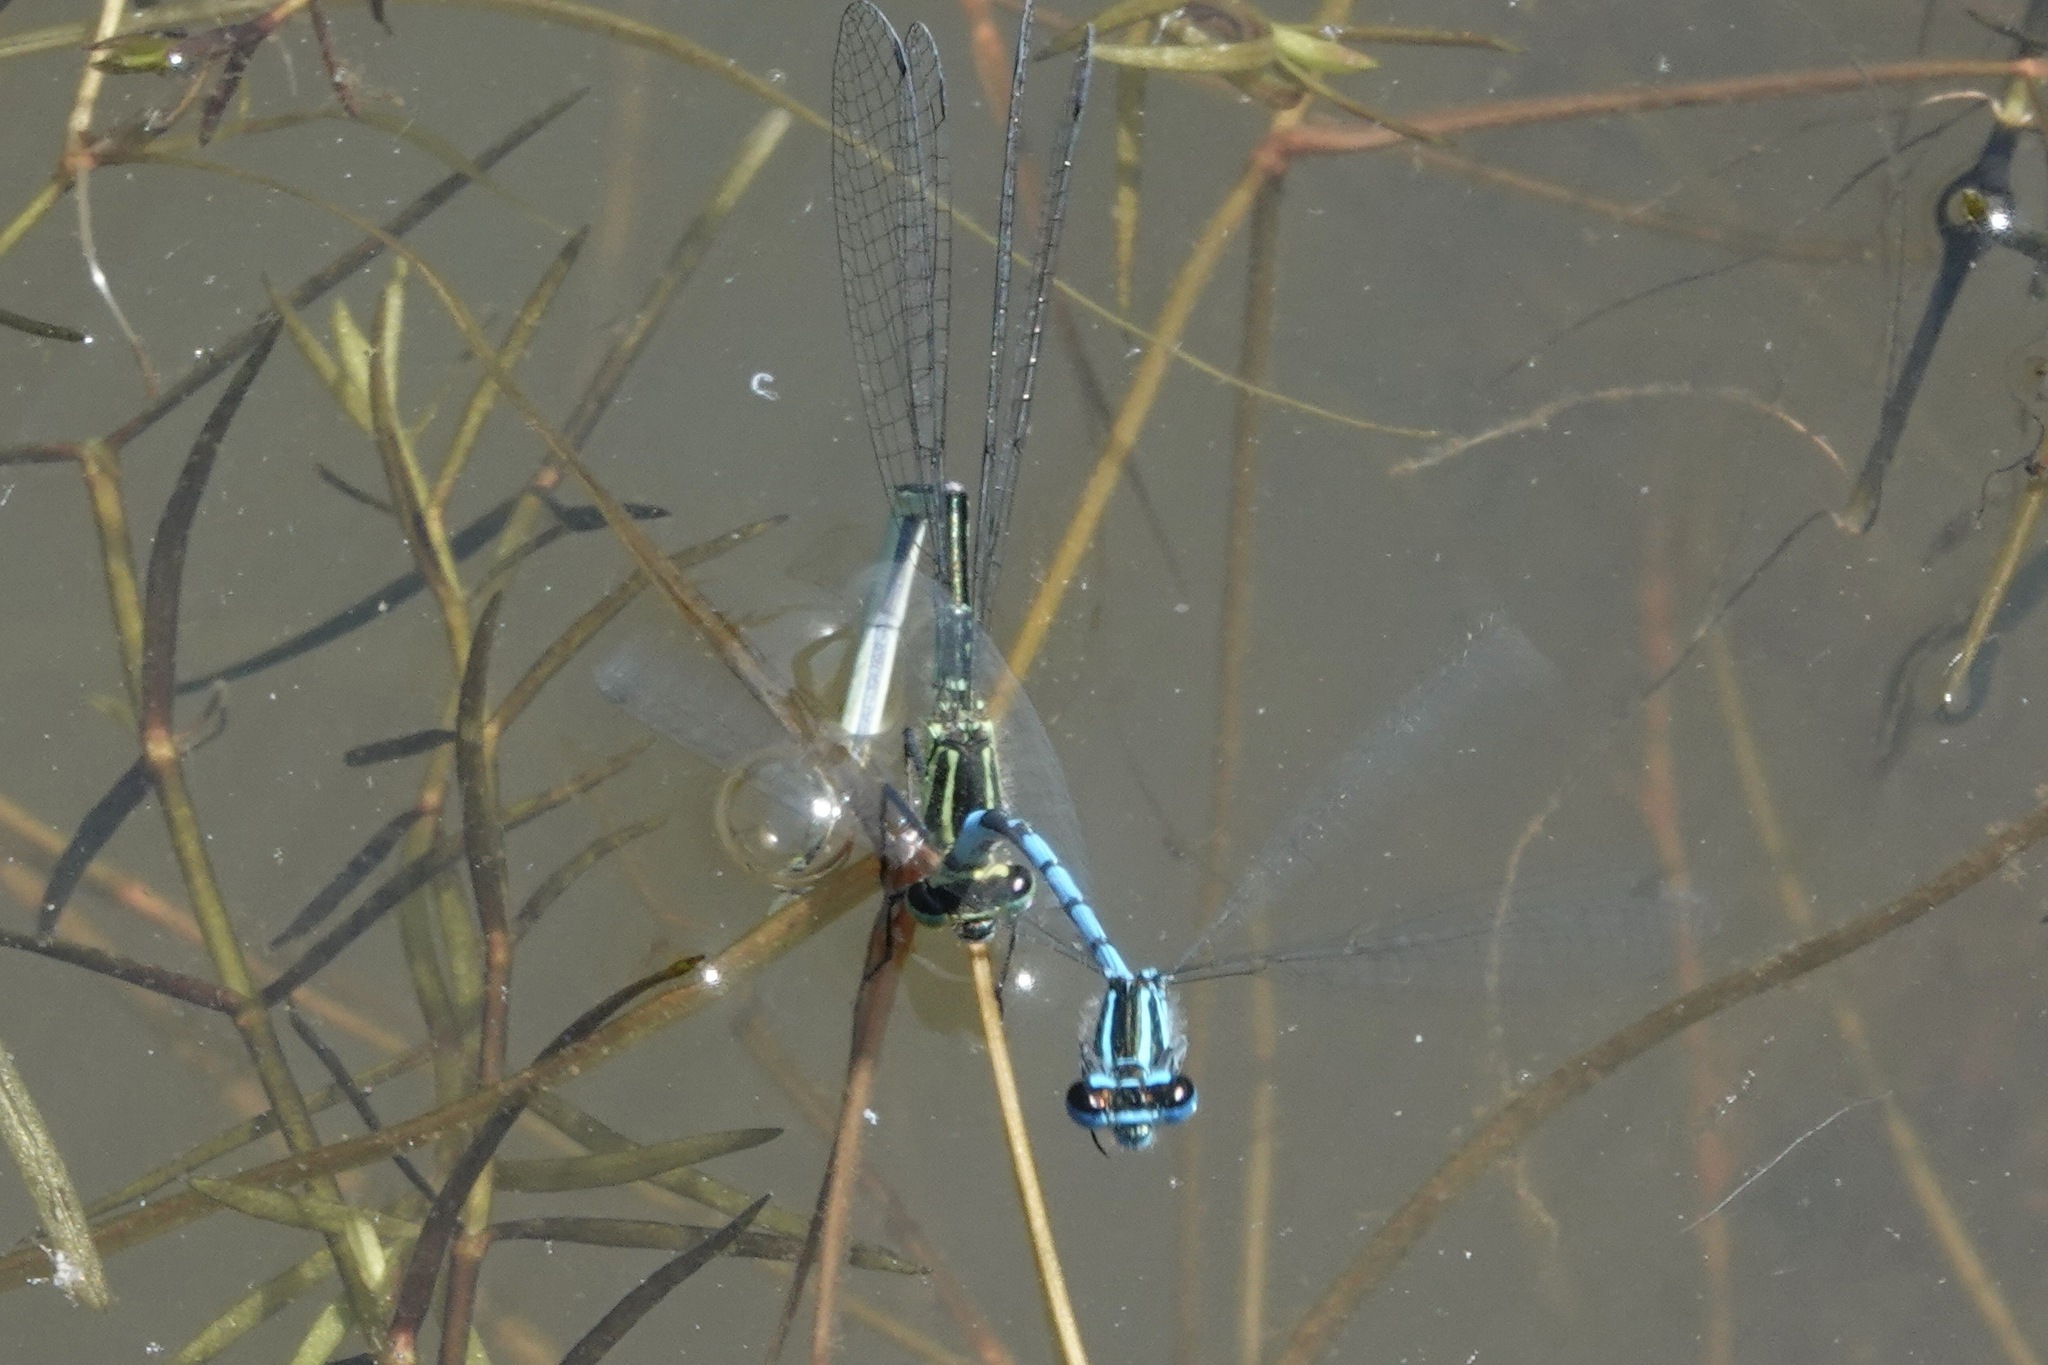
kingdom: Animalia
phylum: Arthropoda
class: Insecta
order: Odonata
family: Coenagrionidae
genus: Coenagrion
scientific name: Coenagrion puella
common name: Azure damselfly
